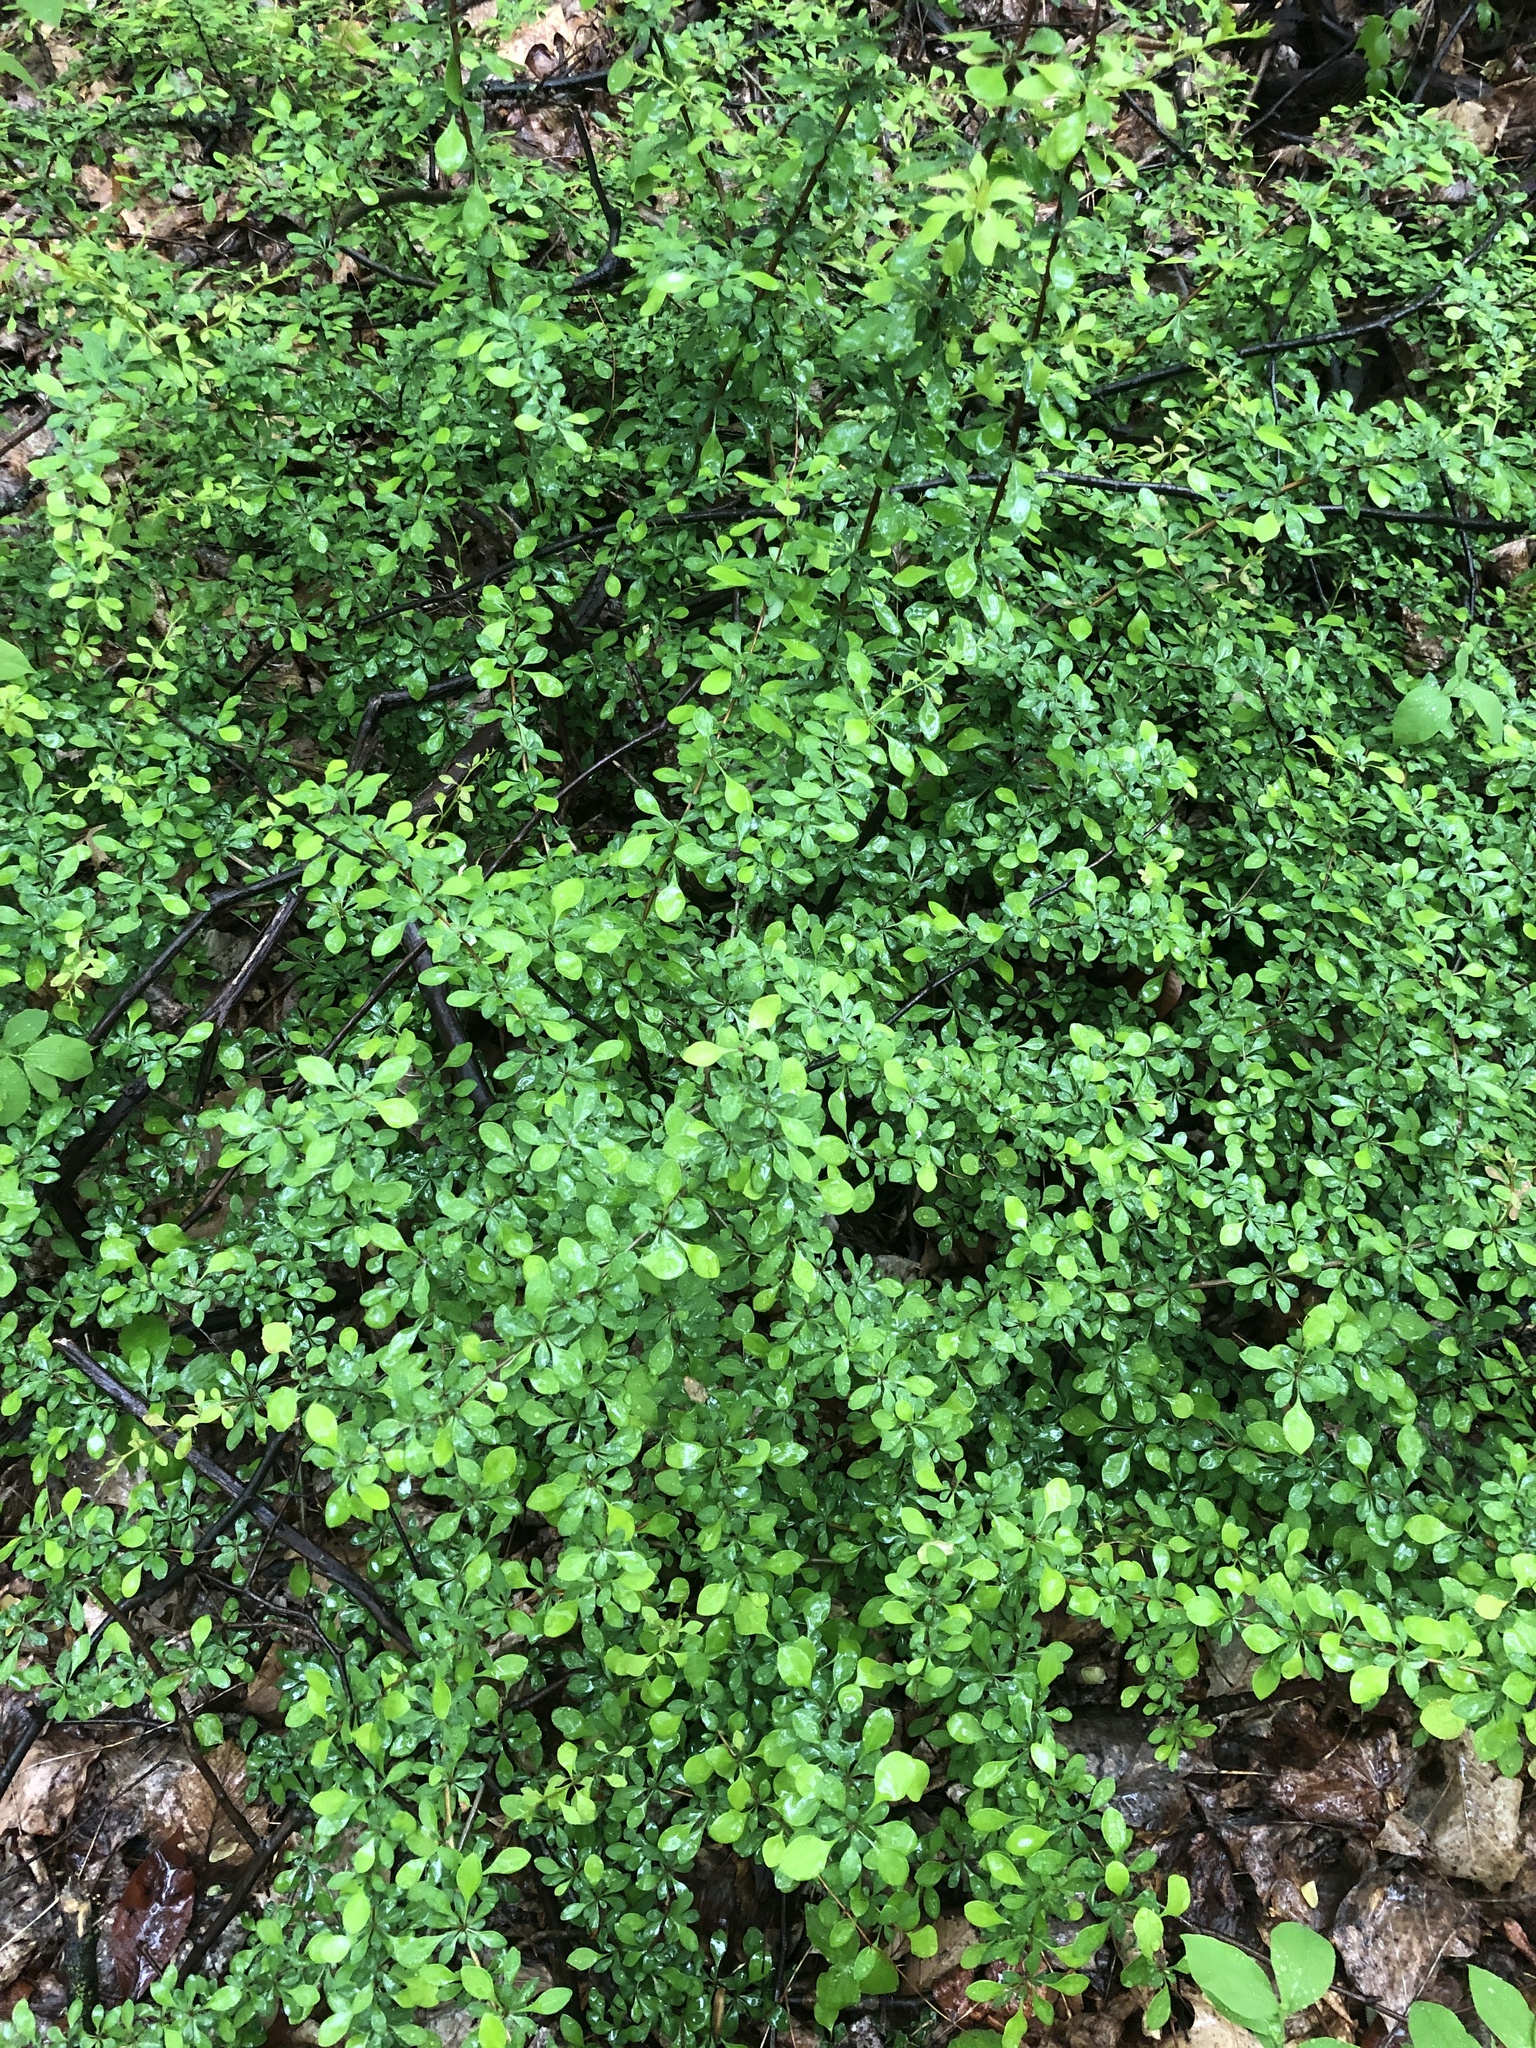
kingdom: Plantae
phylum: Tracheophyta
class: Magnoliopsida
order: Ranunculales
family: Berberidaceae
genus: Berberis
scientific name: Berberis thunbergii
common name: Japanese barberry
